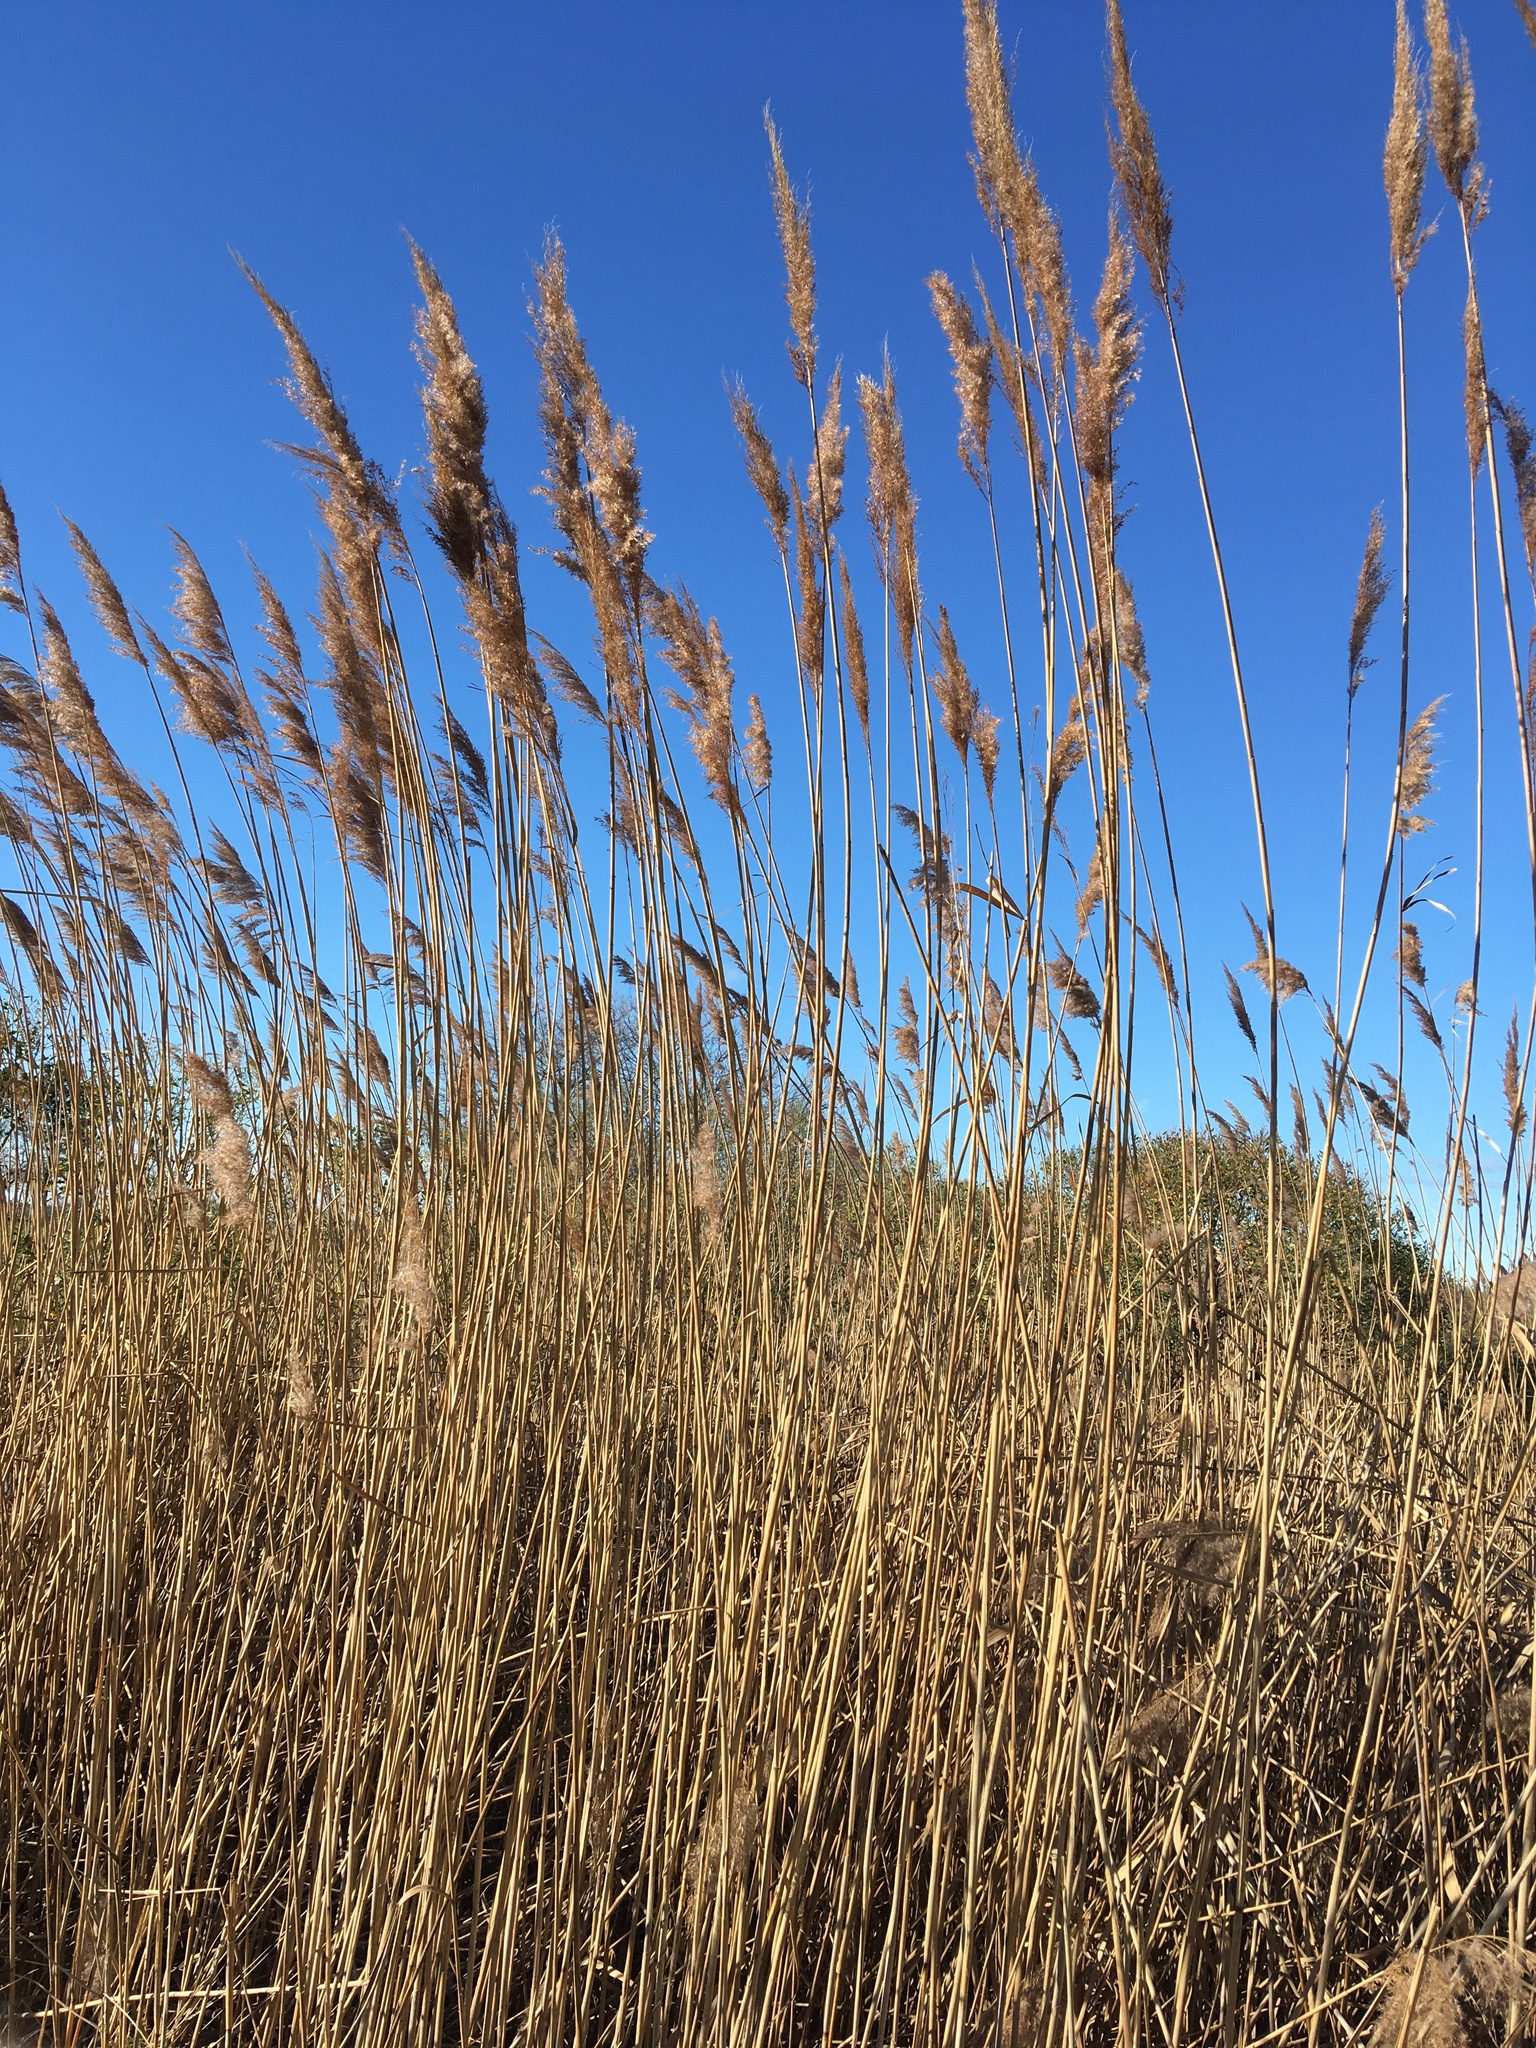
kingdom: Plantae
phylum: Tracheophyta
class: Liliopsida
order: Poales
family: Poaceae
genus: Phragmites
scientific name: Phragmites australis
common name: Common reed
